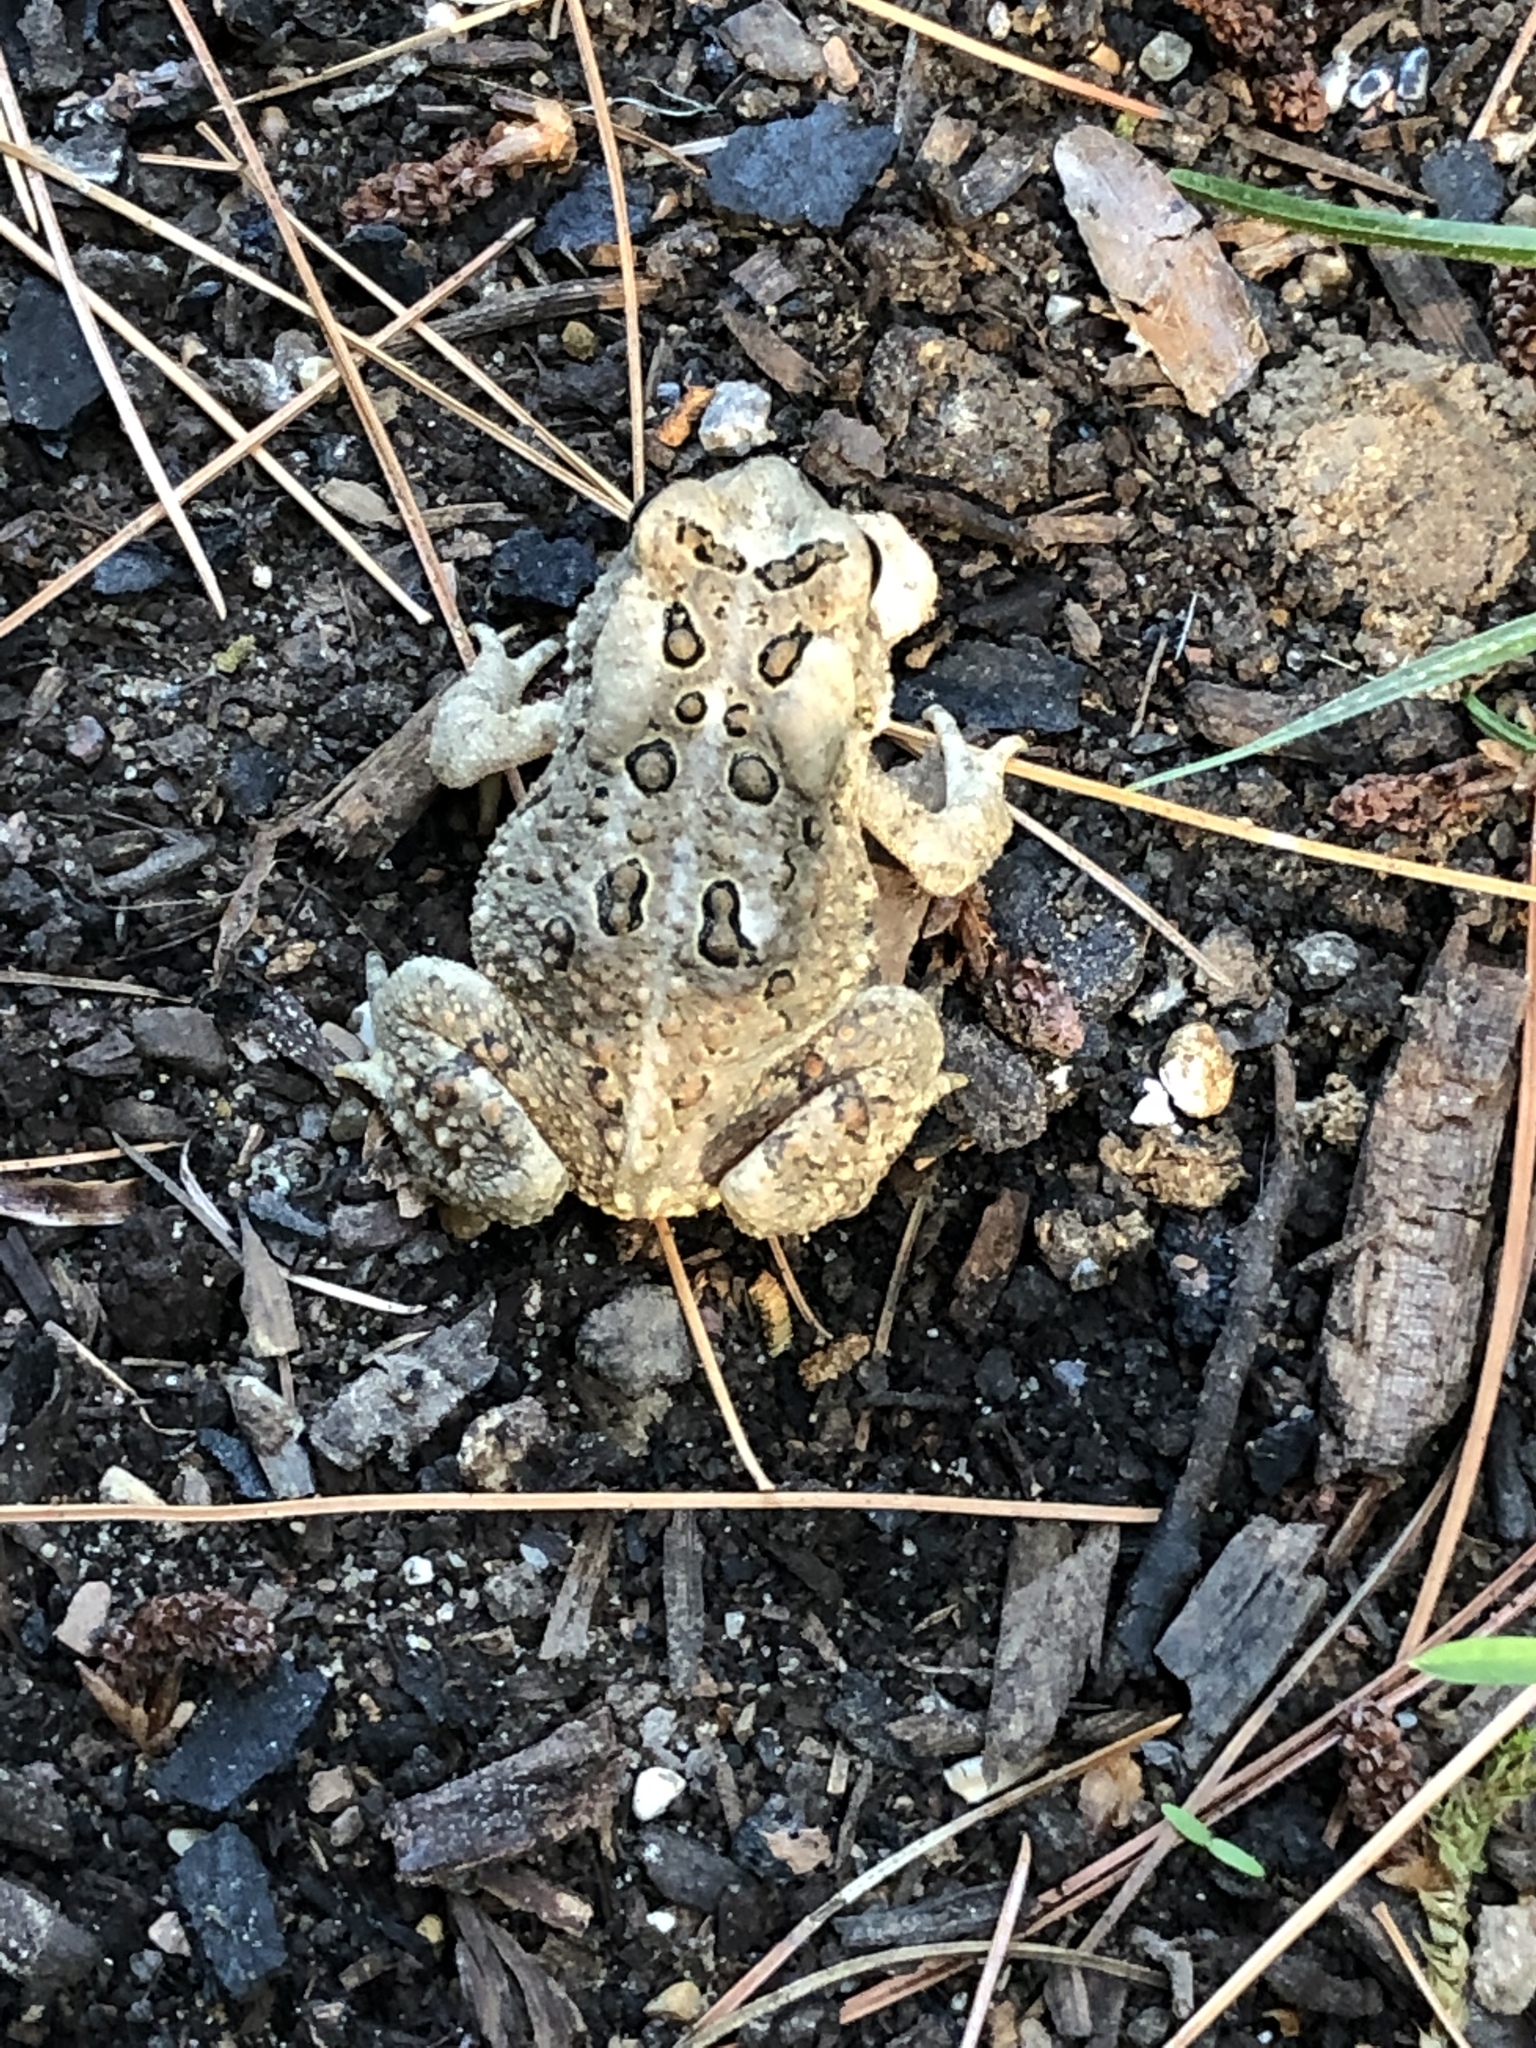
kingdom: Animalia
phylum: Chordata
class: Amphibia
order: Anura
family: Bufonidae
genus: Anaxyrus
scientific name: Anaxyrus americanus
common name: American toad
